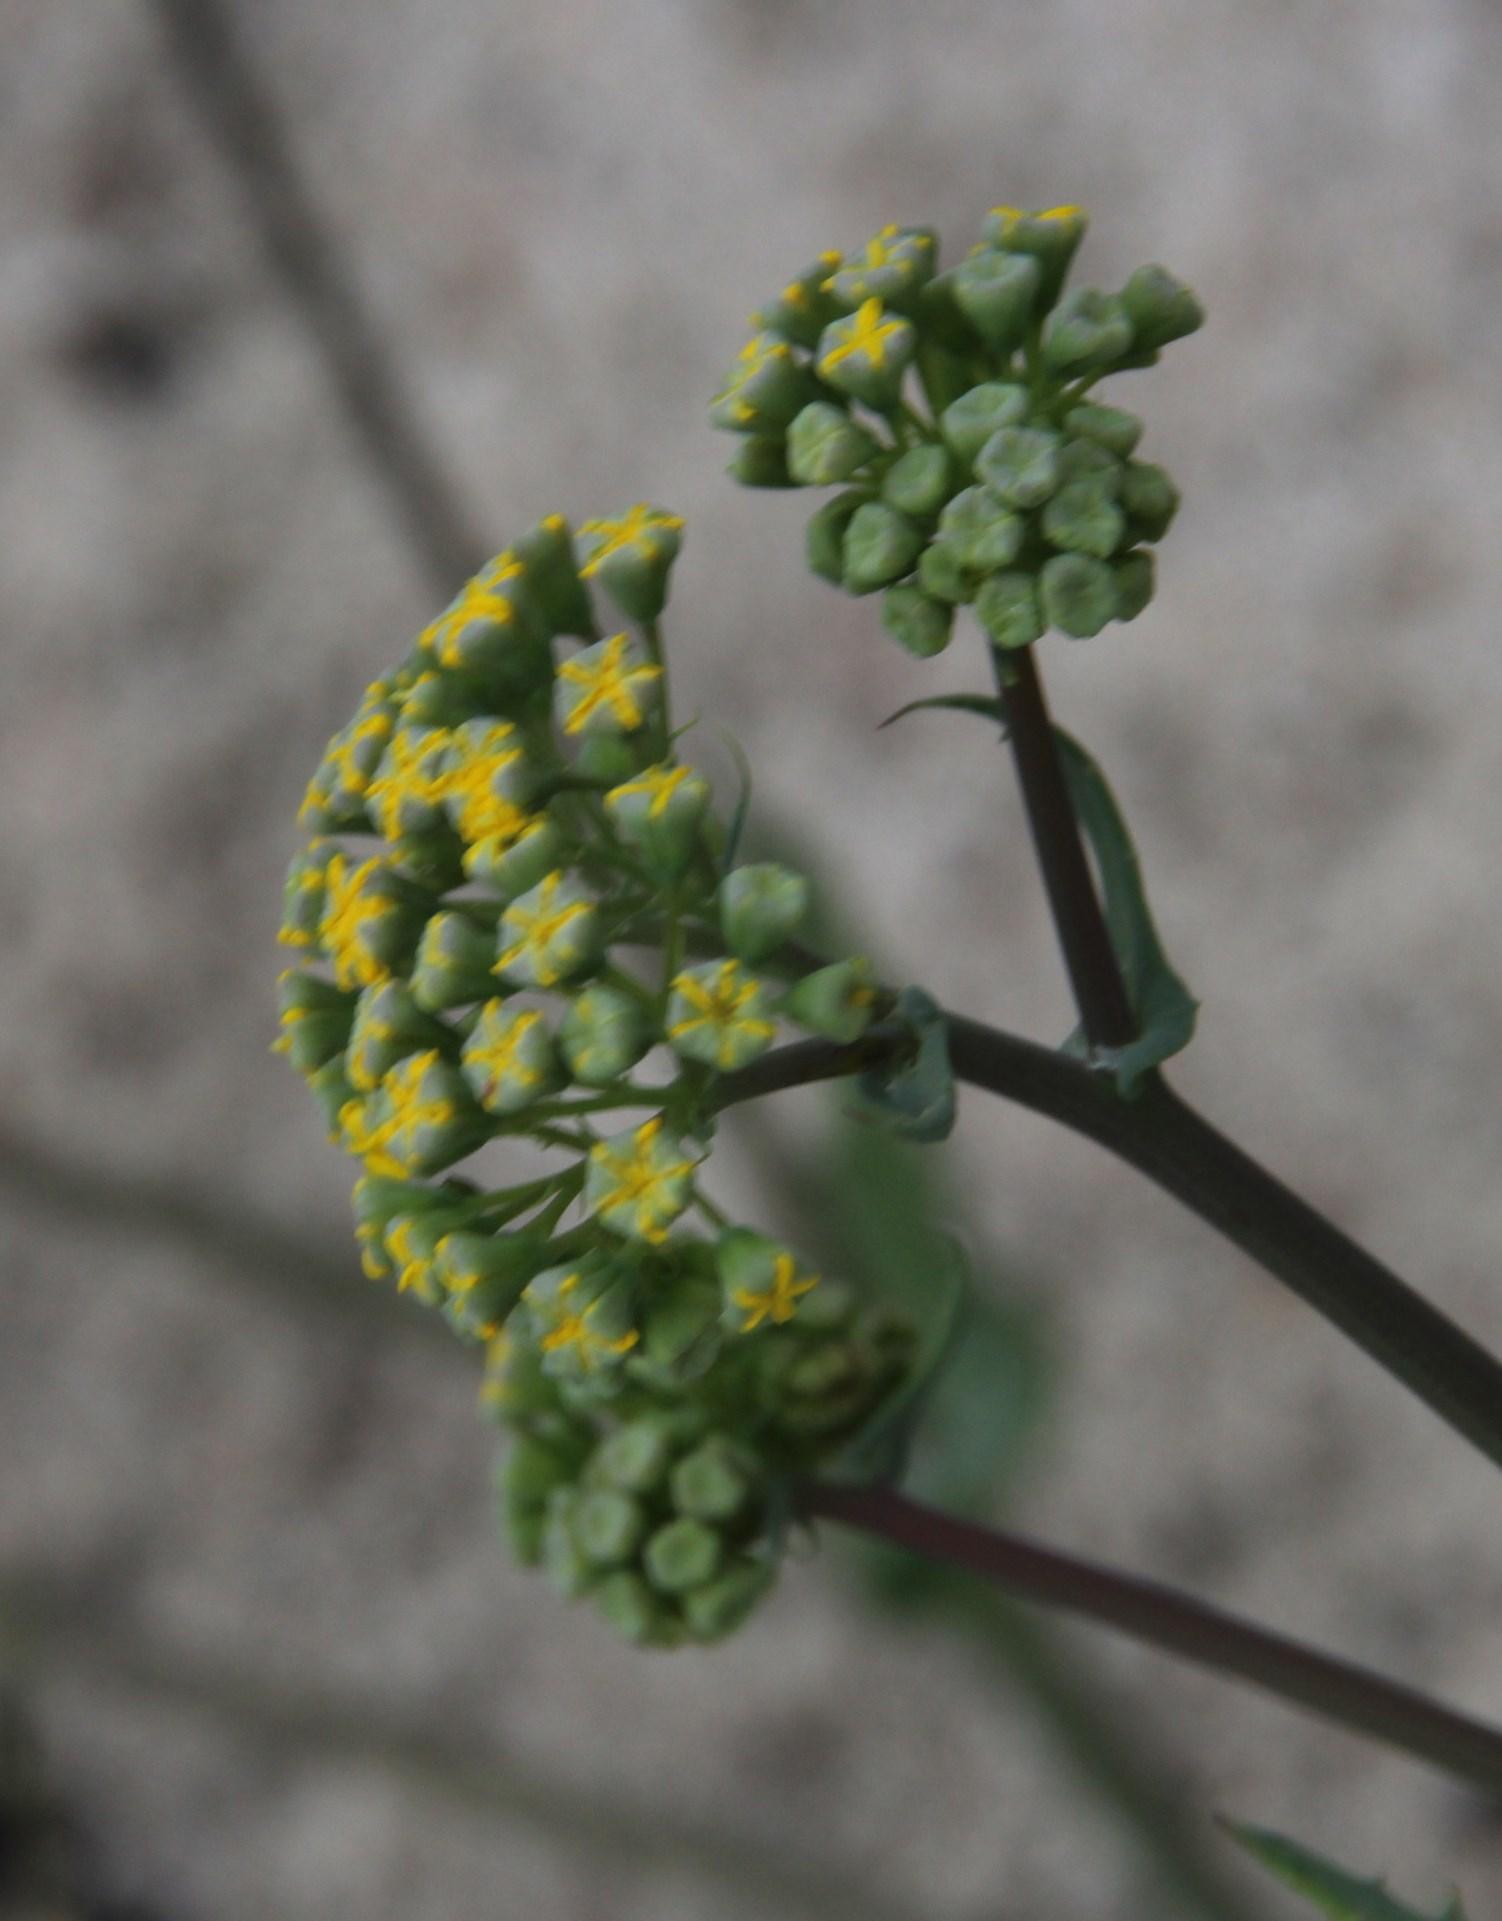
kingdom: Plantae
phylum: Tracheophyta
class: Magnoliopsida
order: Asterales
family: Asteraceae
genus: Gymnodiscus
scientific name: Gymnodiscus capillaris
